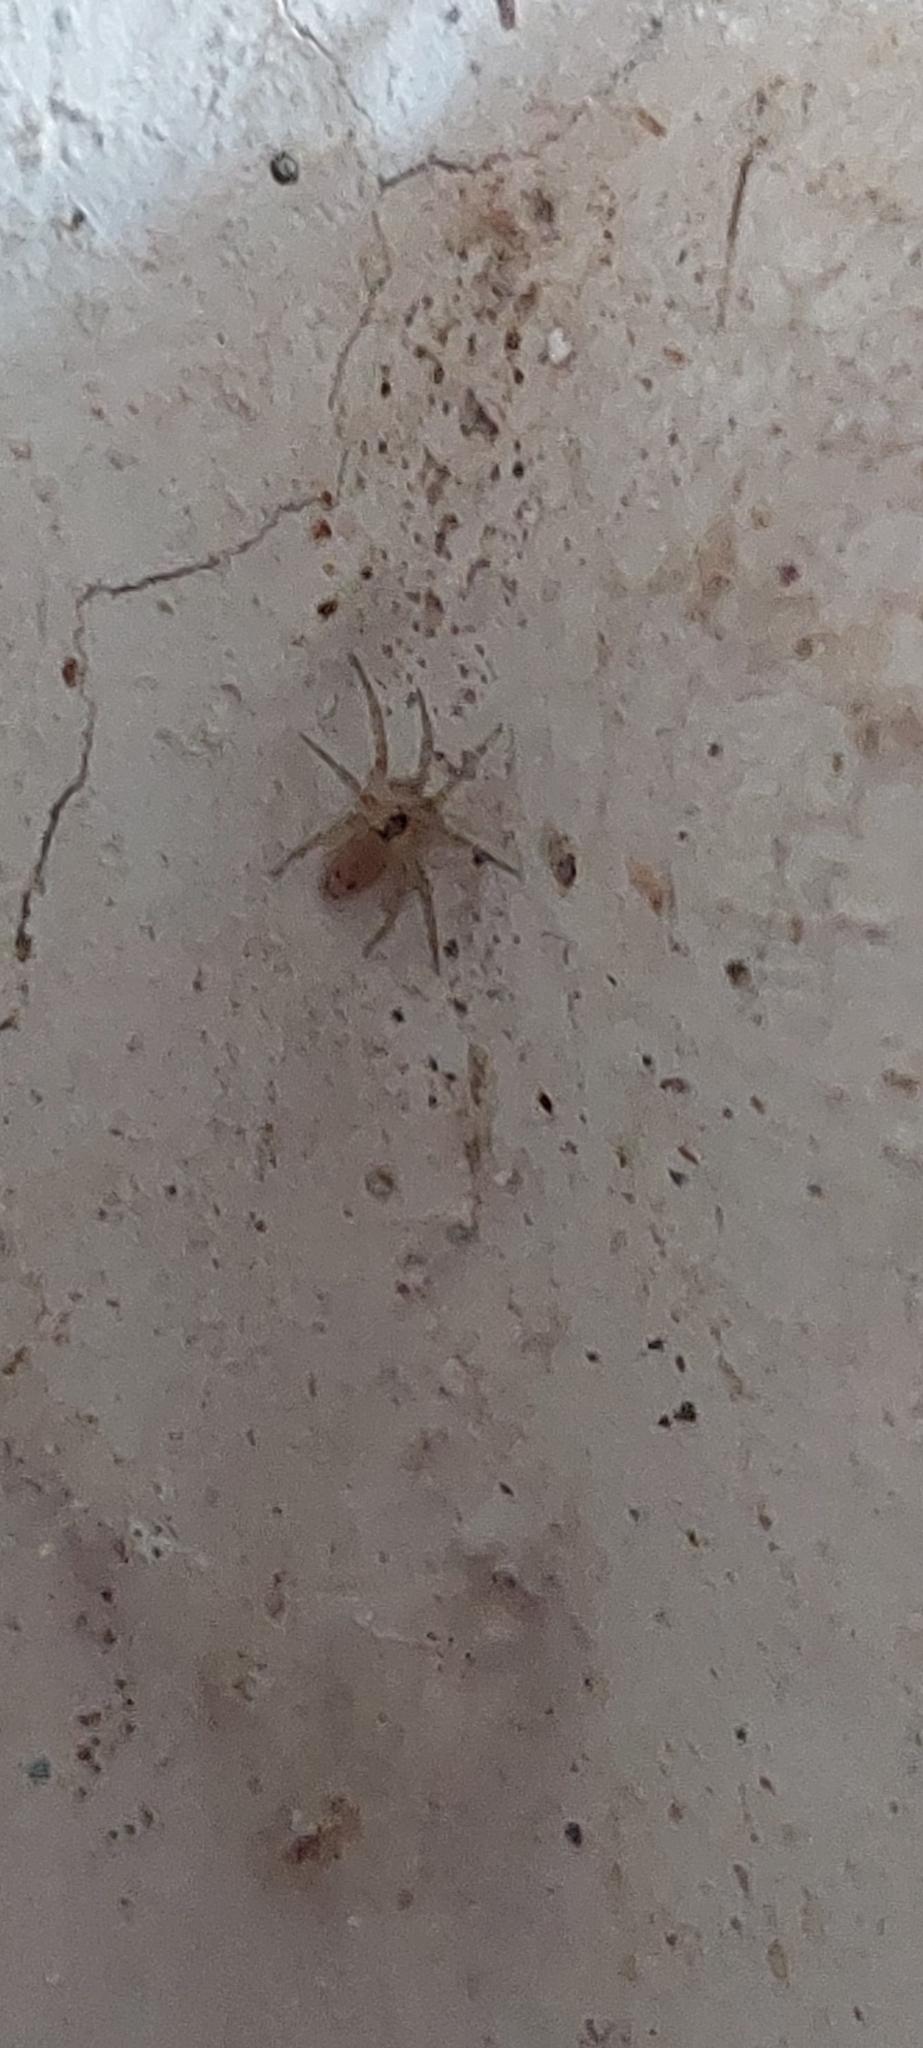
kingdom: Animalia
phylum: Arthropoda
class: Arachnida
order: Araneae
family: Oecobiidae
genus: Oecobius
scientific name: Oecobius navus
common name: Flatmesh weaver
